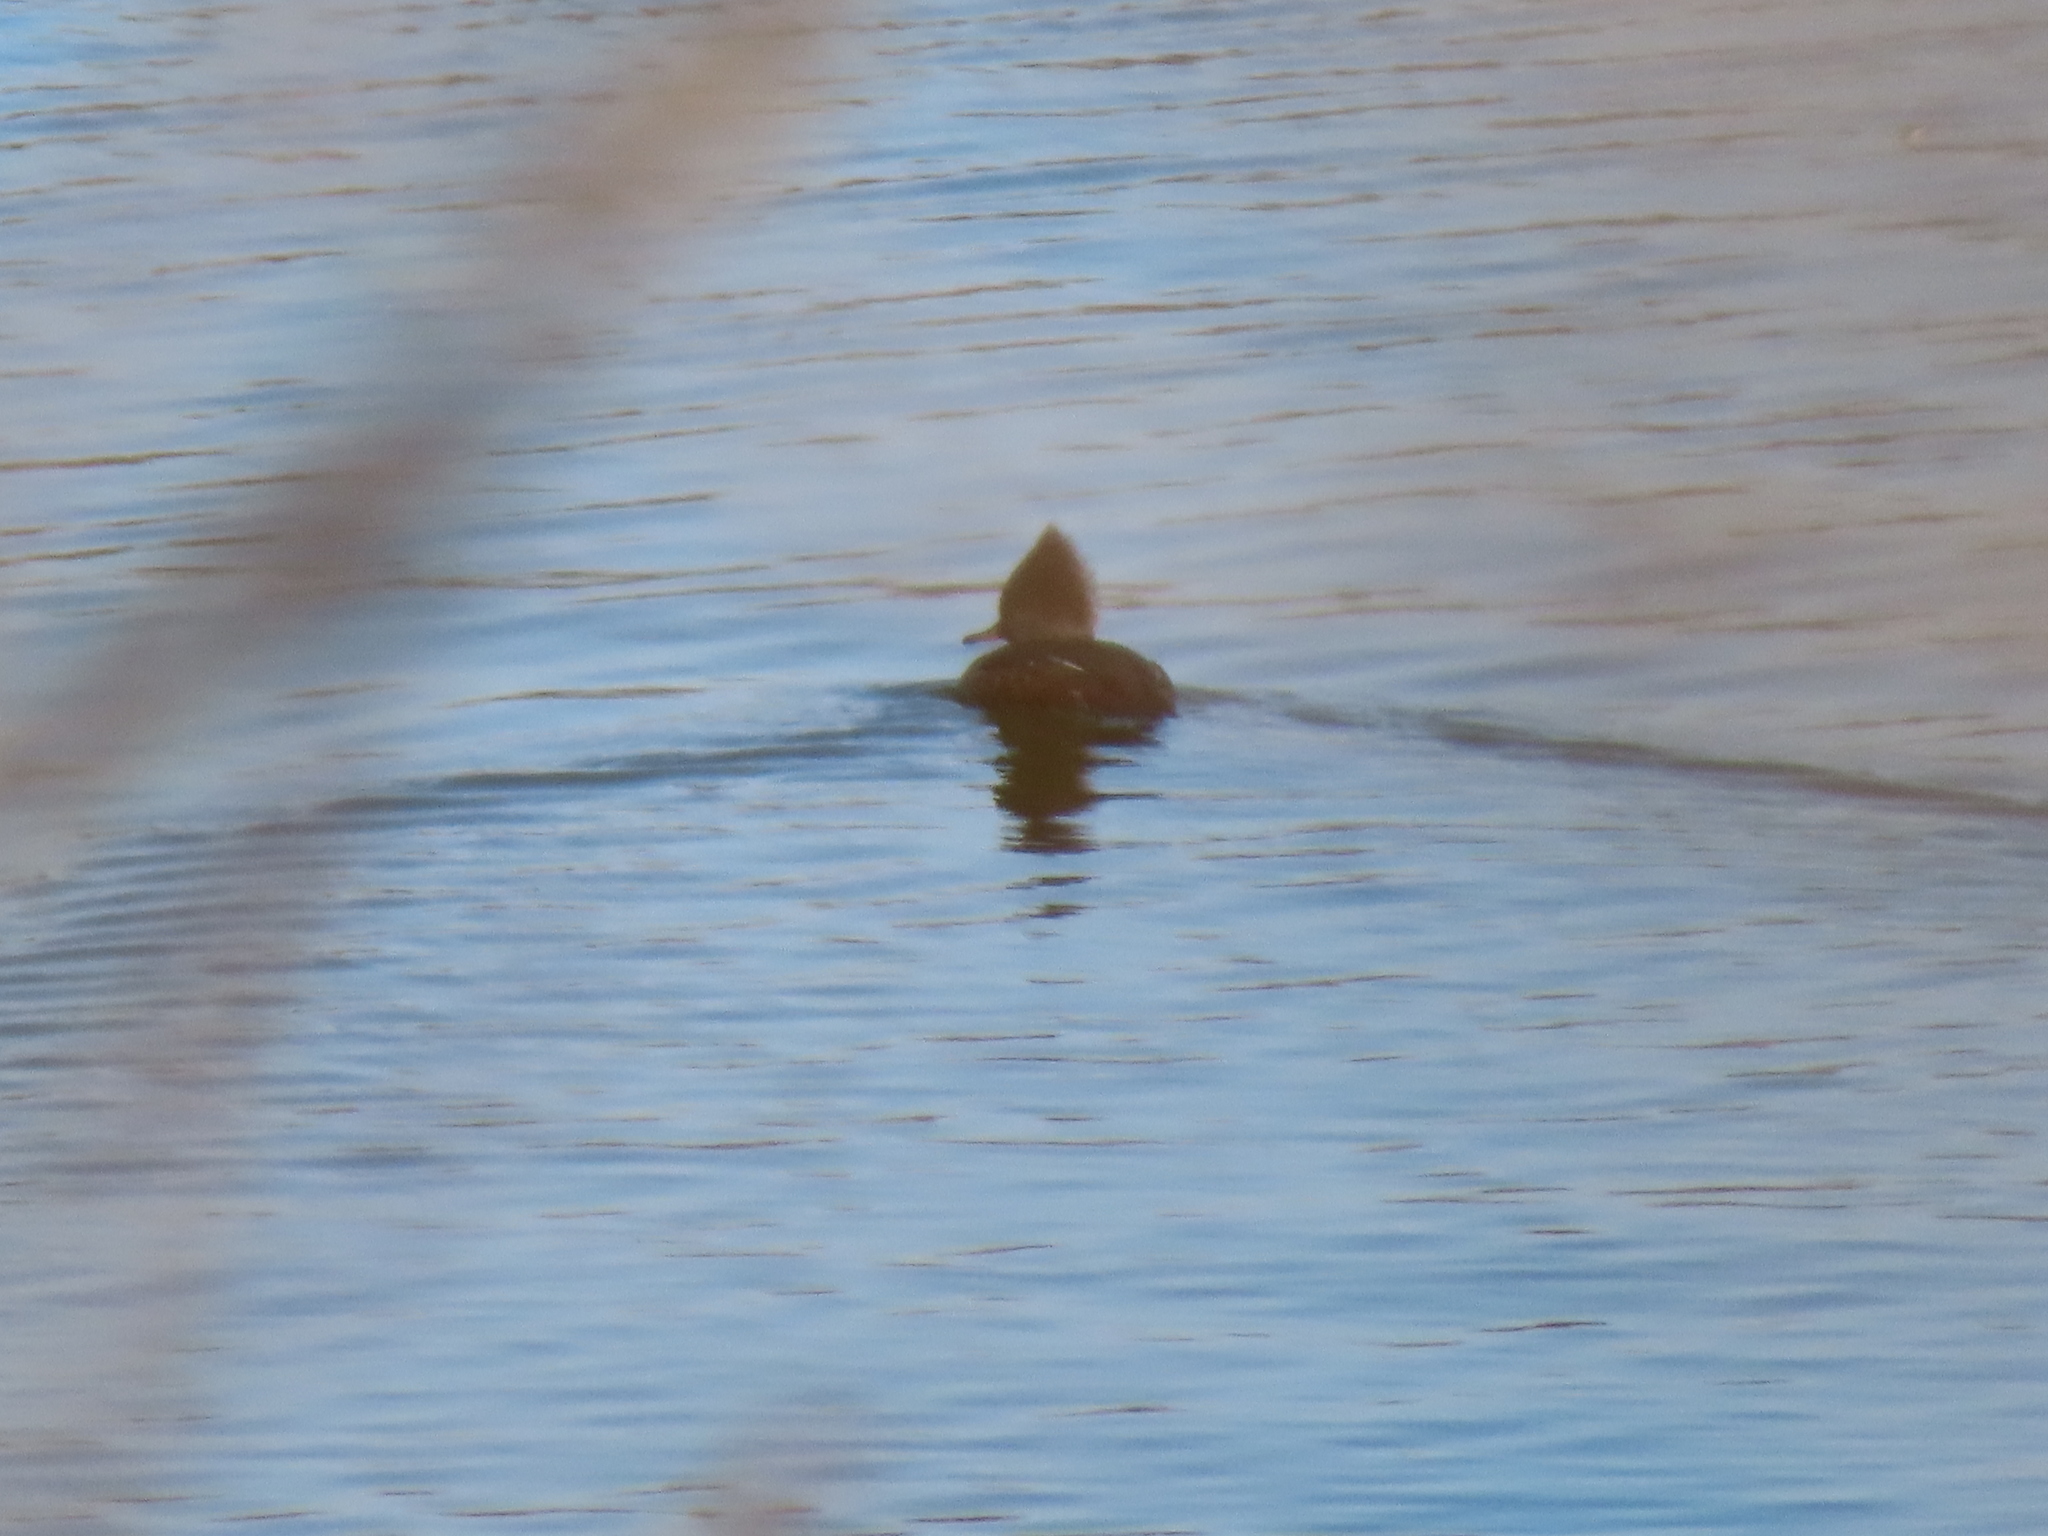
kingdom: Animalia
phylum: Chordata
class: Aves
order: Anseriformes
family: Anatidae
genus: Lophodytes
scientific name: Lophodytes cucullatus
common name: Hooded merganser
